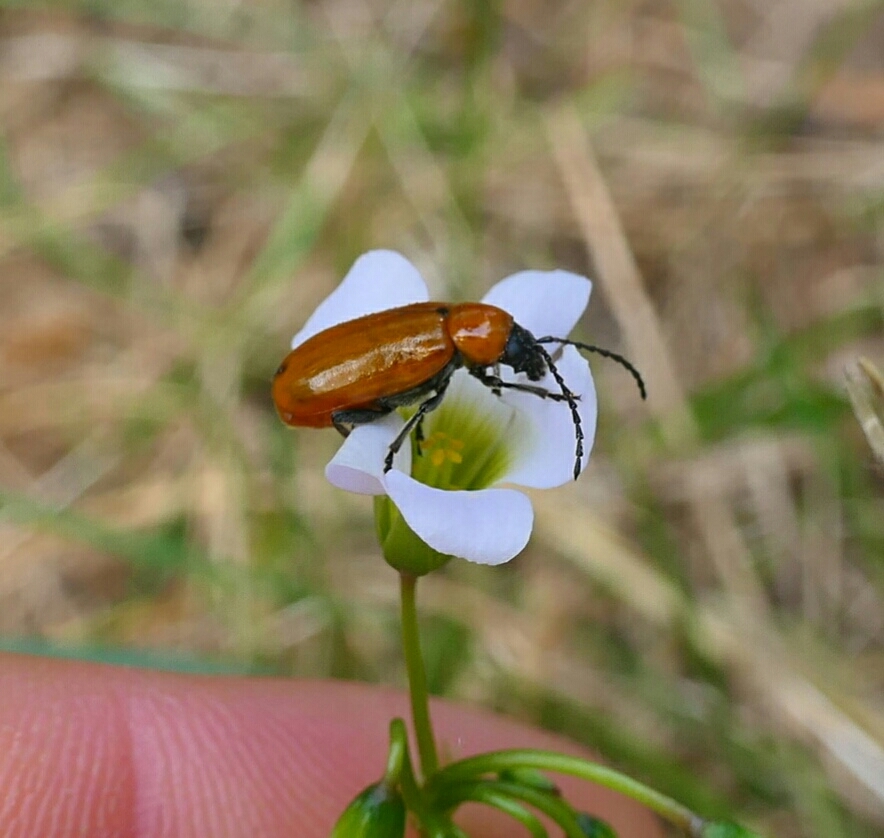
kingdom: Animalia
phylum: Arthropoda
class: Insecta
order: Coleoptera
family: Chrysomelidae
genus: Exosoma
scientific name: Exosoma lusitanicum
